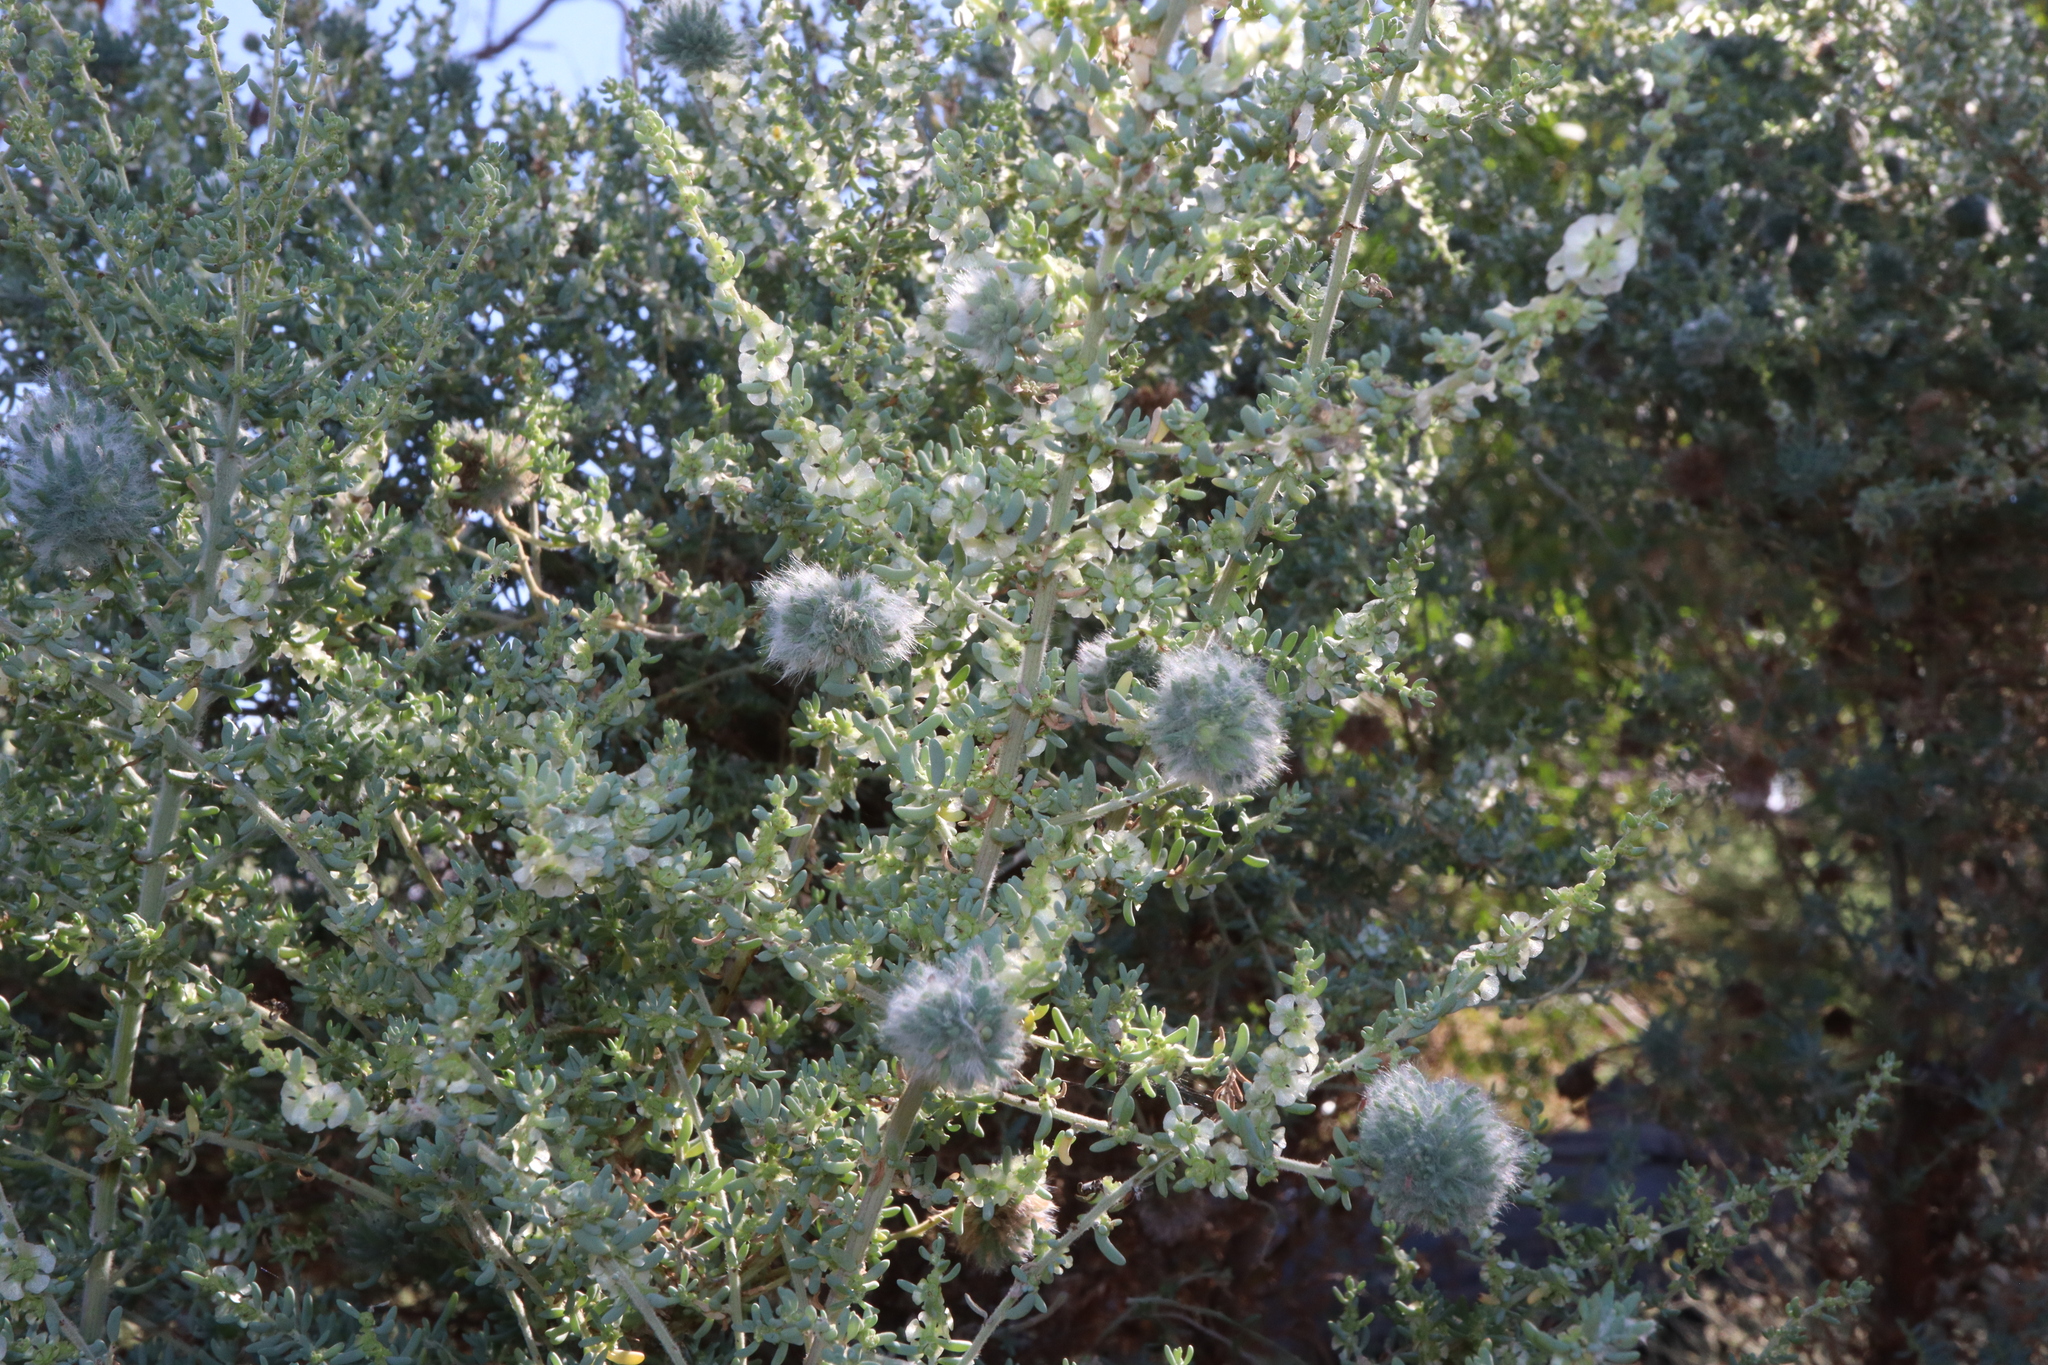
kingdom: Plantae
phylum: Tracheophyta
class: Magnoliopsida
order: Caryophyllales
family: Amaranthaceae
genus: Maireana
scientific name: Maireana brevifolia
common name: Eastern cottonbush
